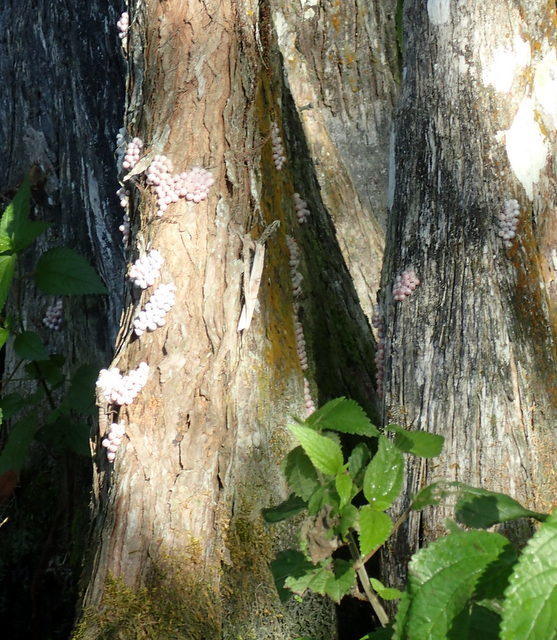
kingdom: Animalia
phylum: Mollusca
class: Gastropoda
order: Architaenioglossa
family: Ampullariidae
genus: Pomacea
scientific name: Pomacea paludosa
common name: Florida applesnail
